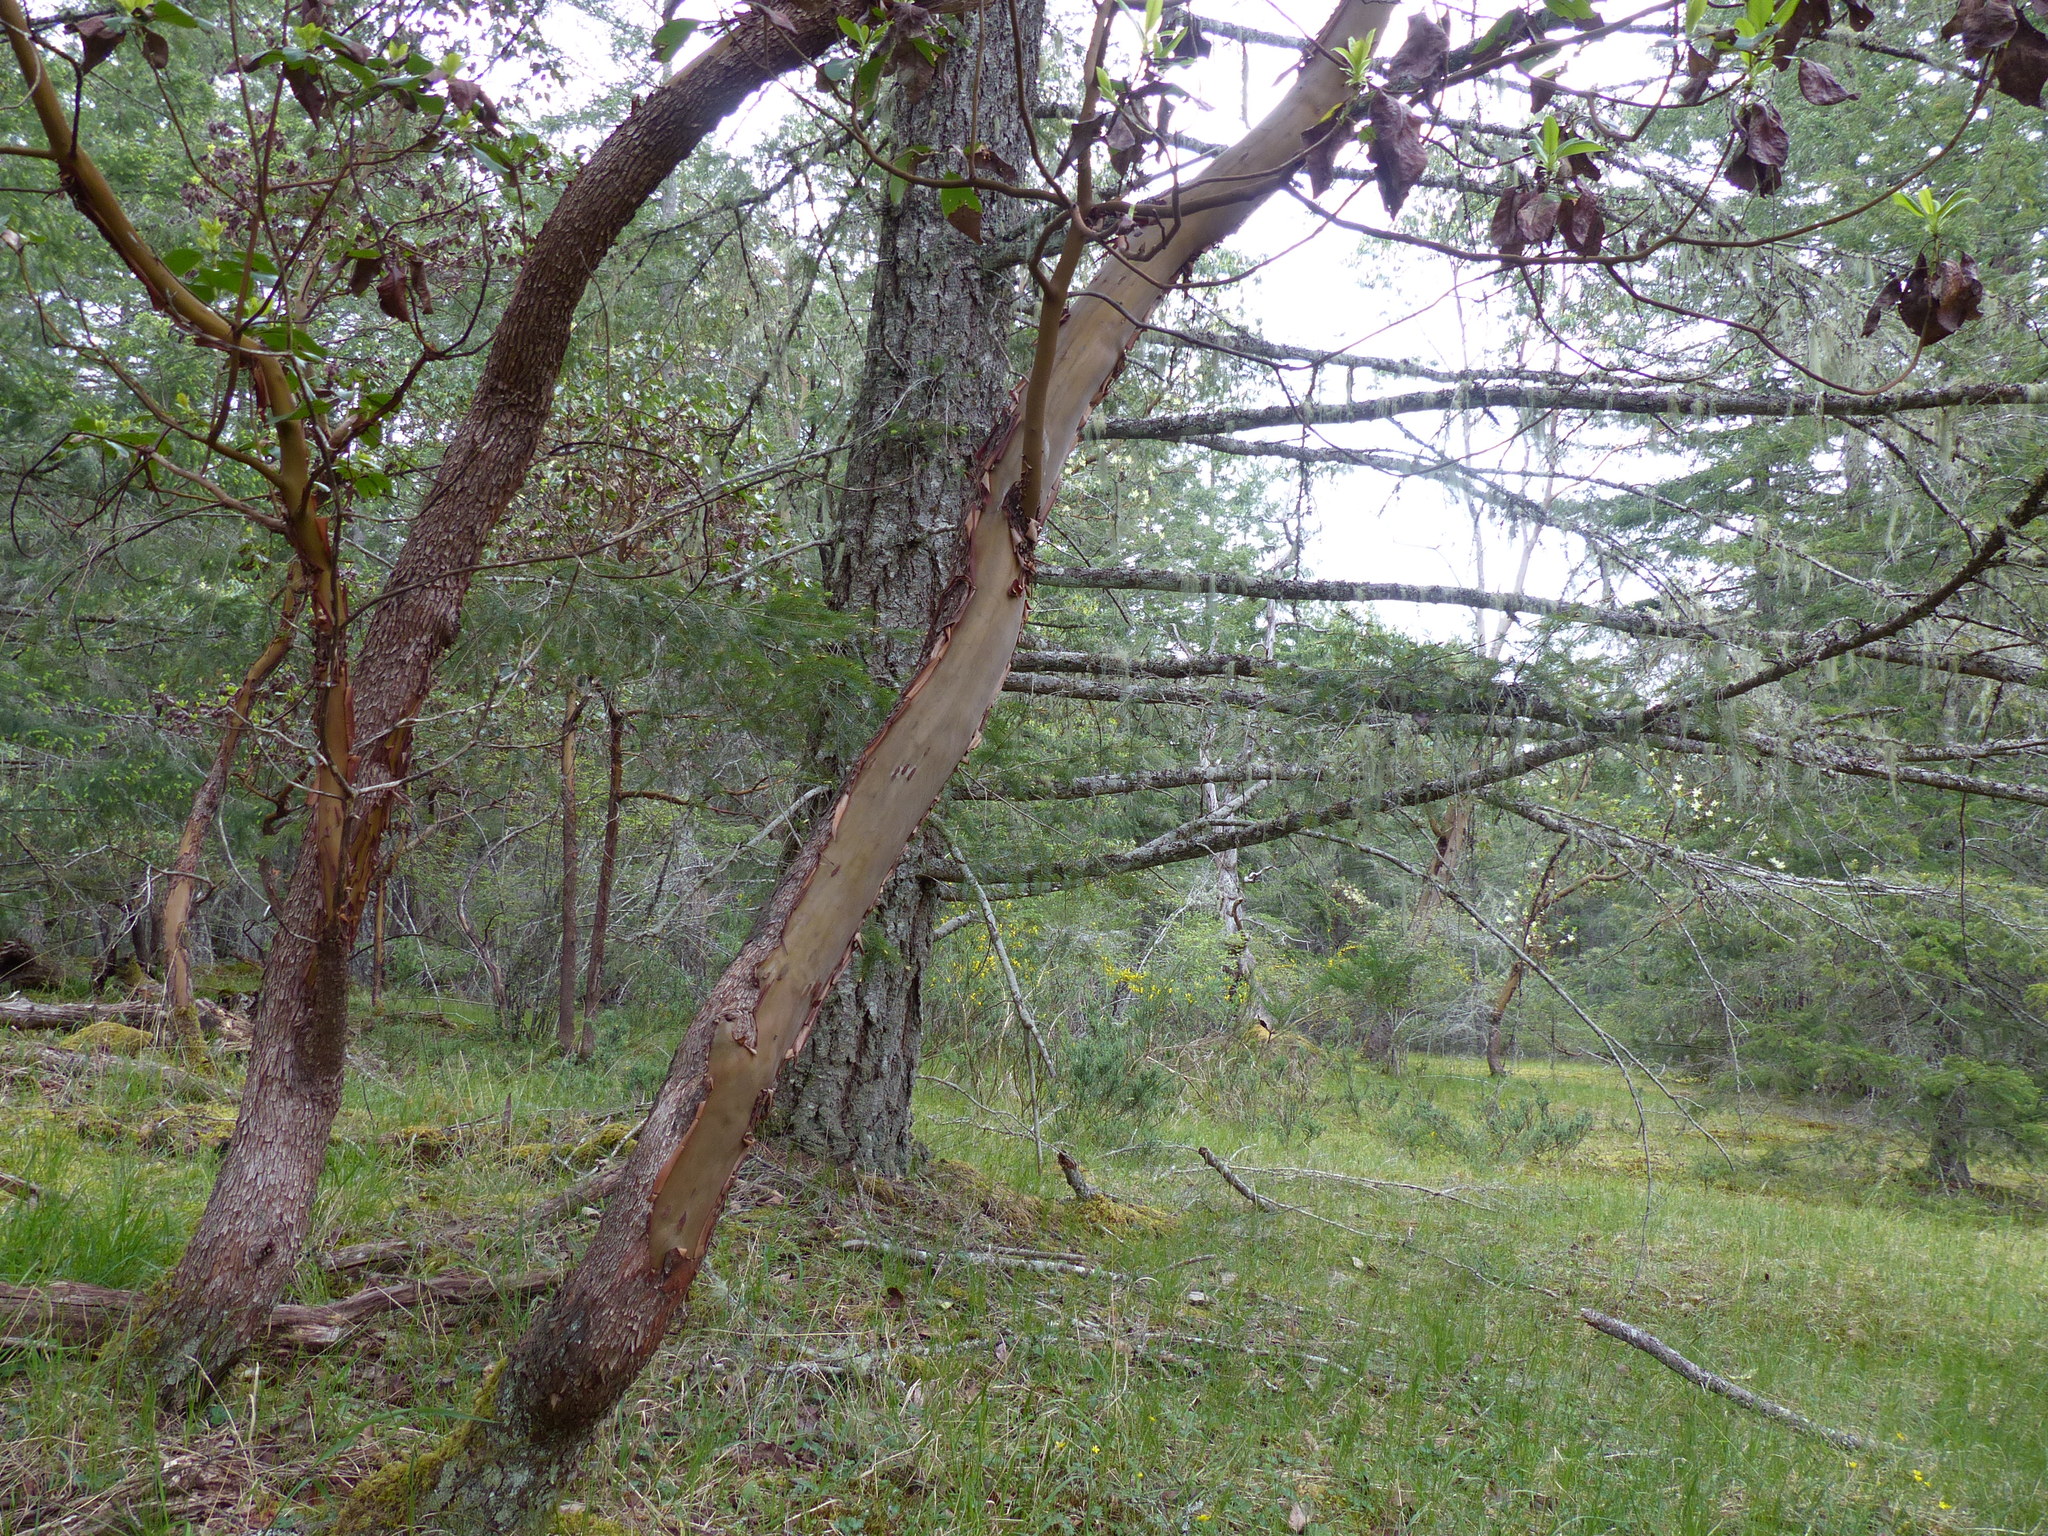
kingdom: Plantae
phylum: Tracheophyta
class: Magnoliopsida
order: Ericales
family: Ericaceae
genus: Arbutus
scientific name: Arbutus menziesii
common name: Pacific madrone
